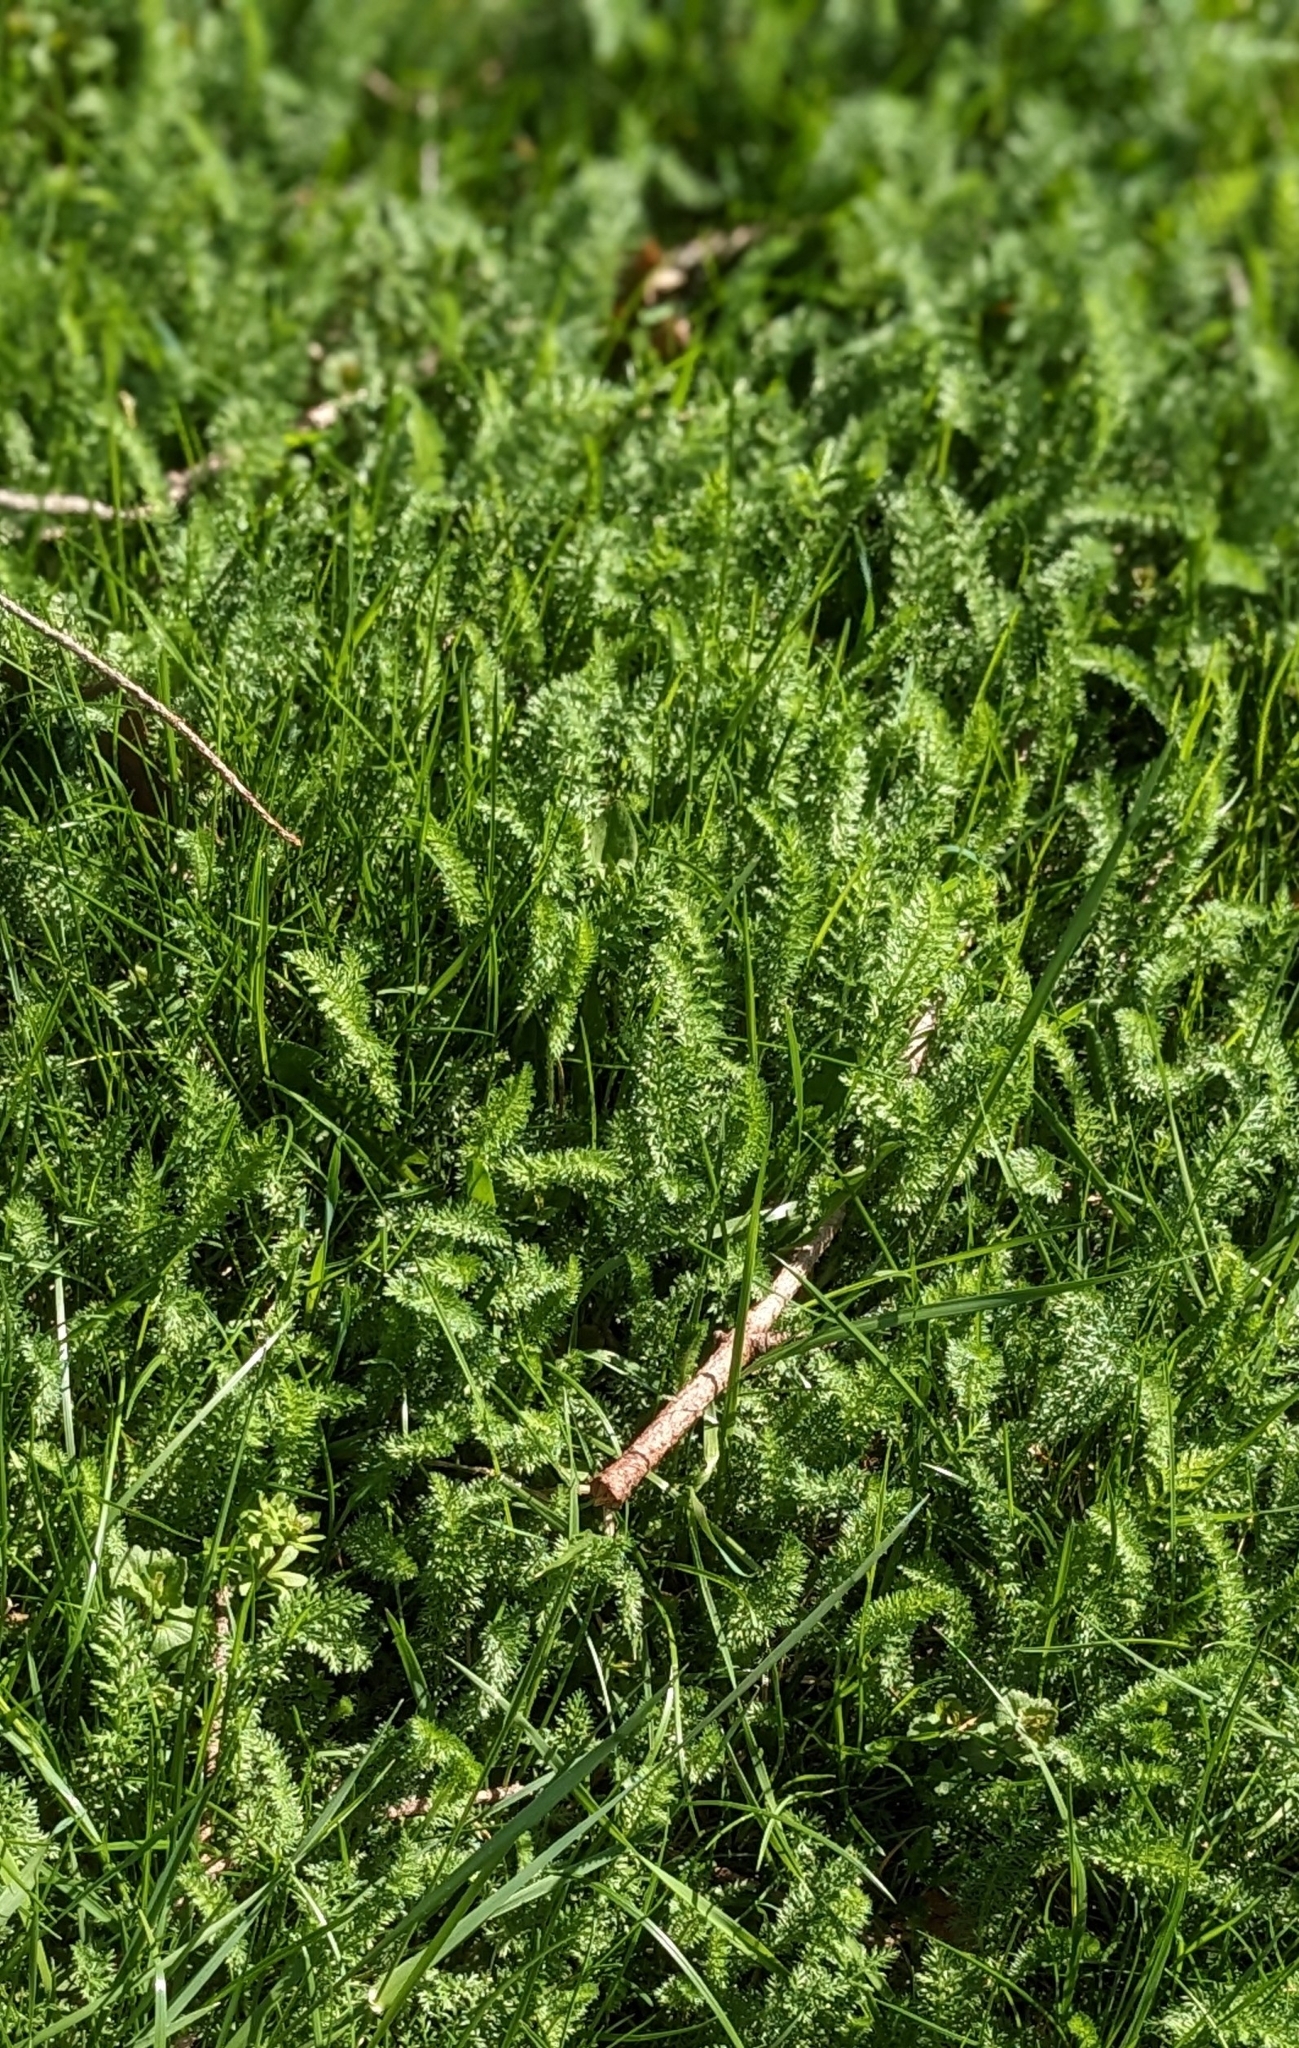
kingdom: Plantae
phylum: Tracheophyta
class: Magnoliopsida
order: Asterales
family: Asteraceae
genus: Achillea
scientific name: Achillea millefolium
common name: Yarrow
